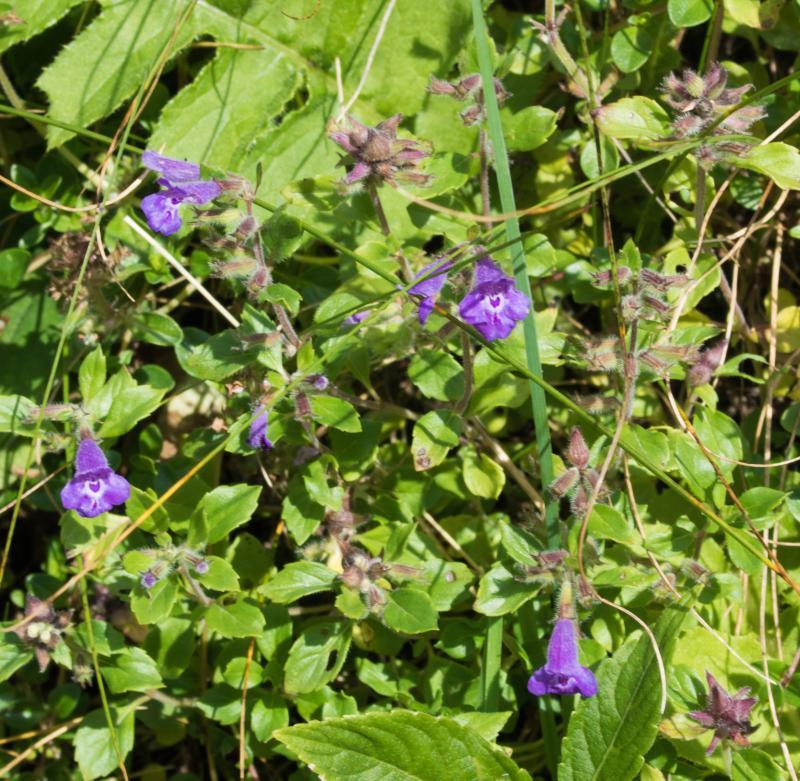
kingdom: Plantae
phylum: Tracheophyta
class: Magnoliopsida
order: Lamiales
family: Lamiaceae
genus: Clinopodium
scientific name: Clinopodium alpinum
